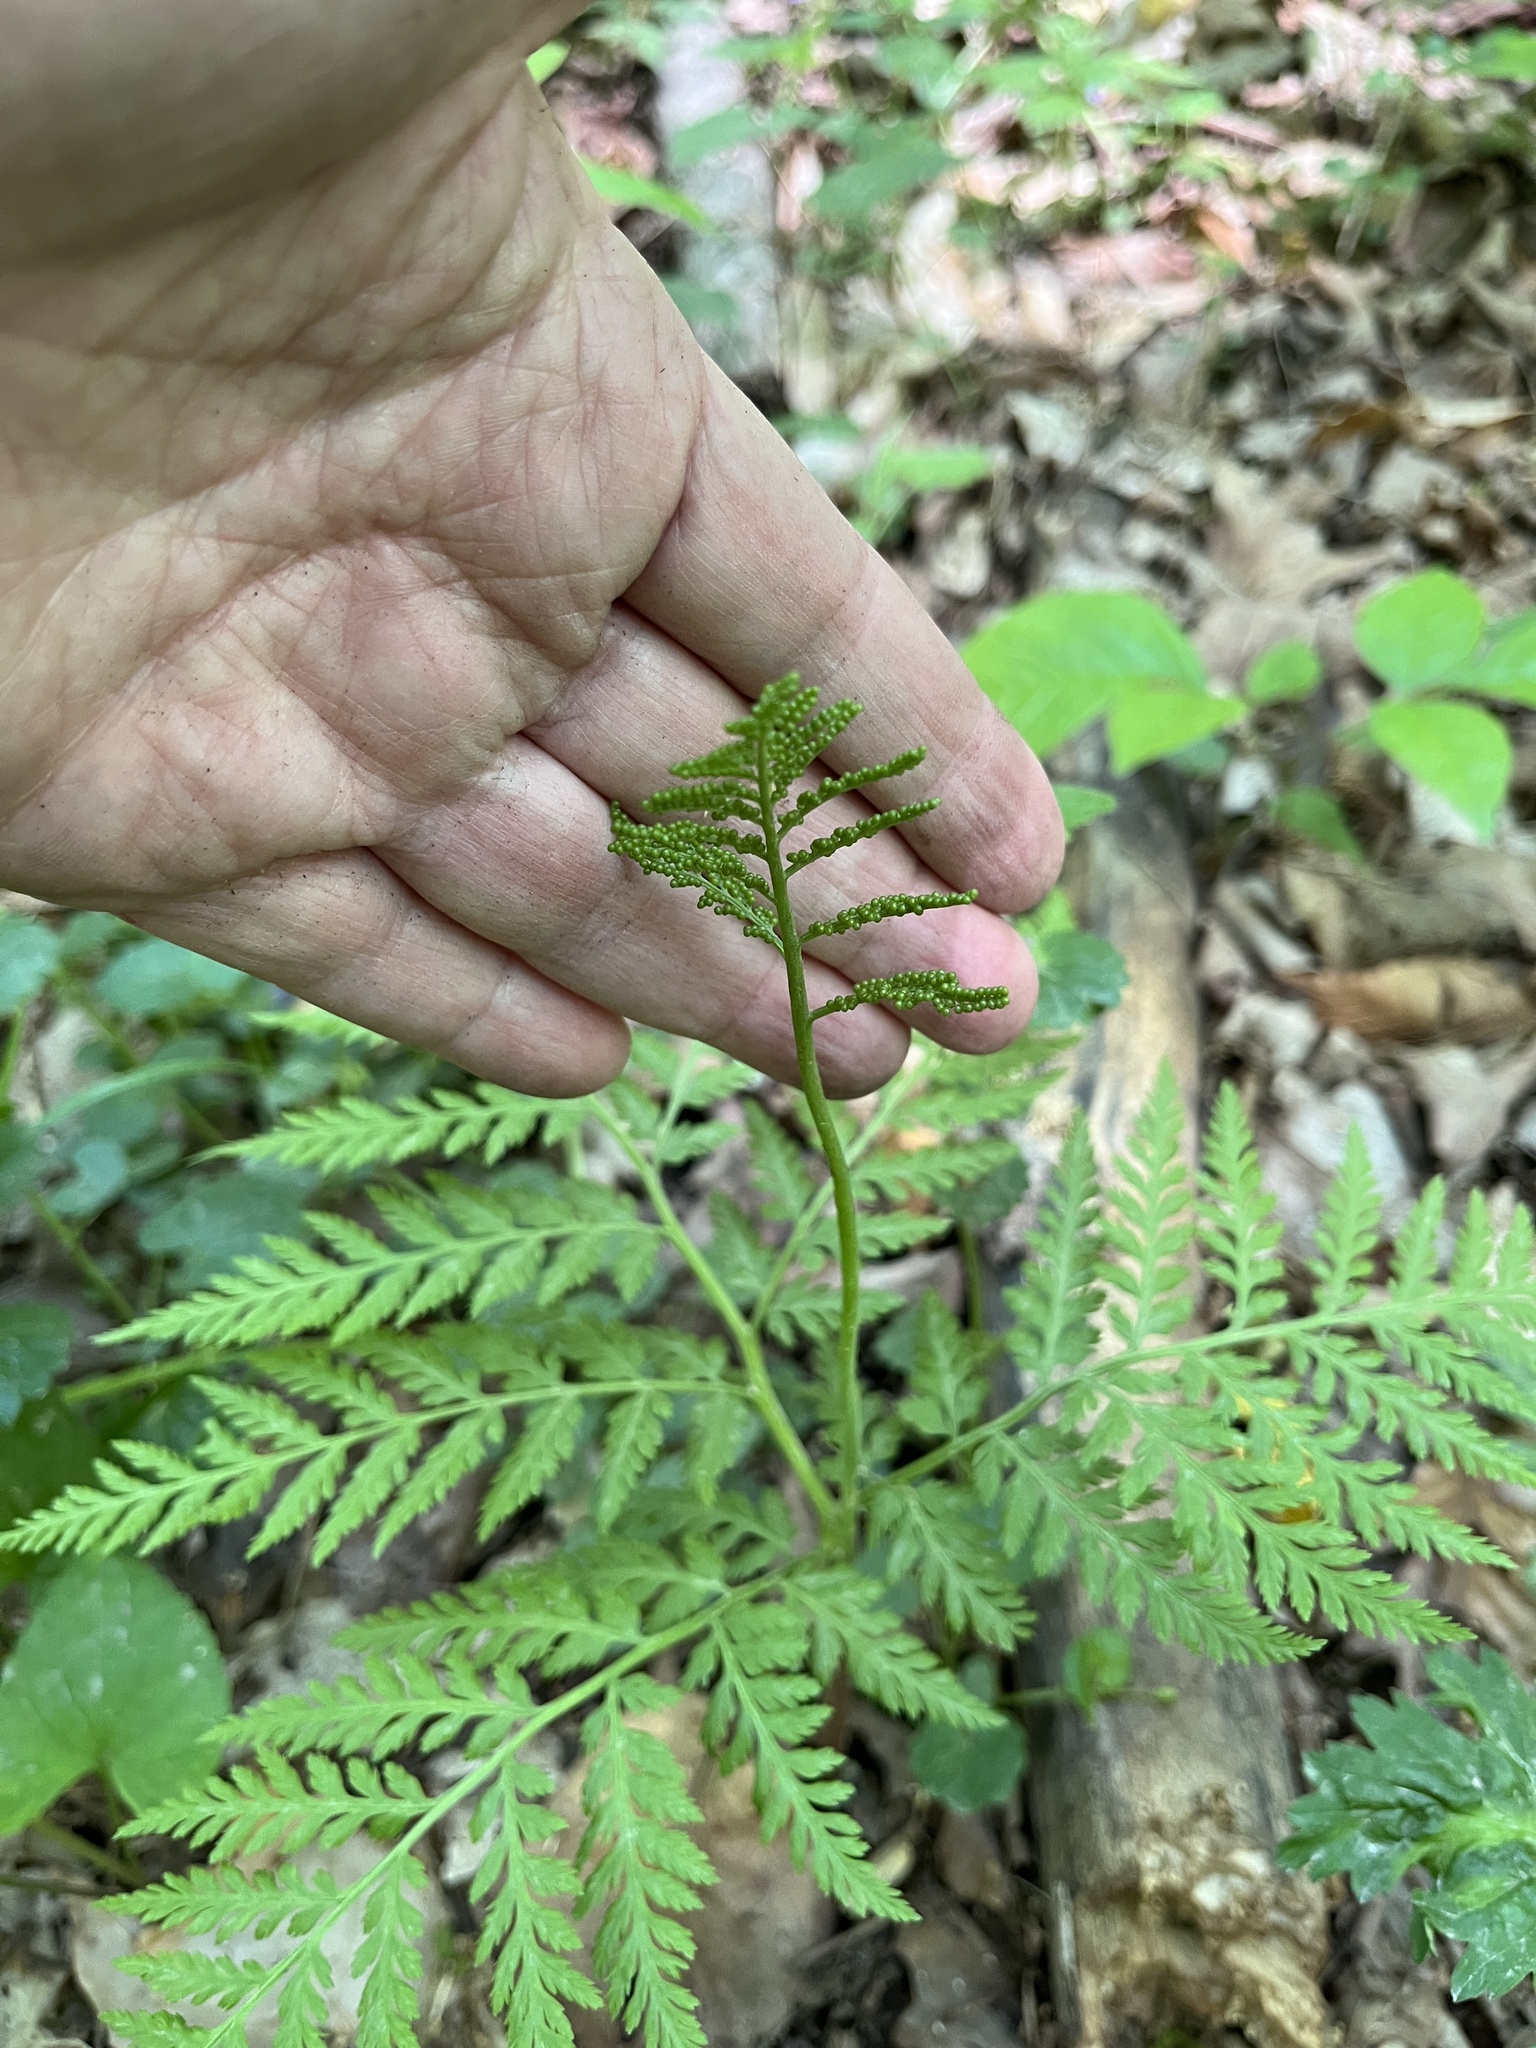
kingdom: Plantae
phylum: Tracheophyta
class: Polypodiopsida
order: Ophioglossales
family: Ophioglossaceae
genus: Botrypus
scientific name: Botrypus virginianus
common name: Common grapefern
